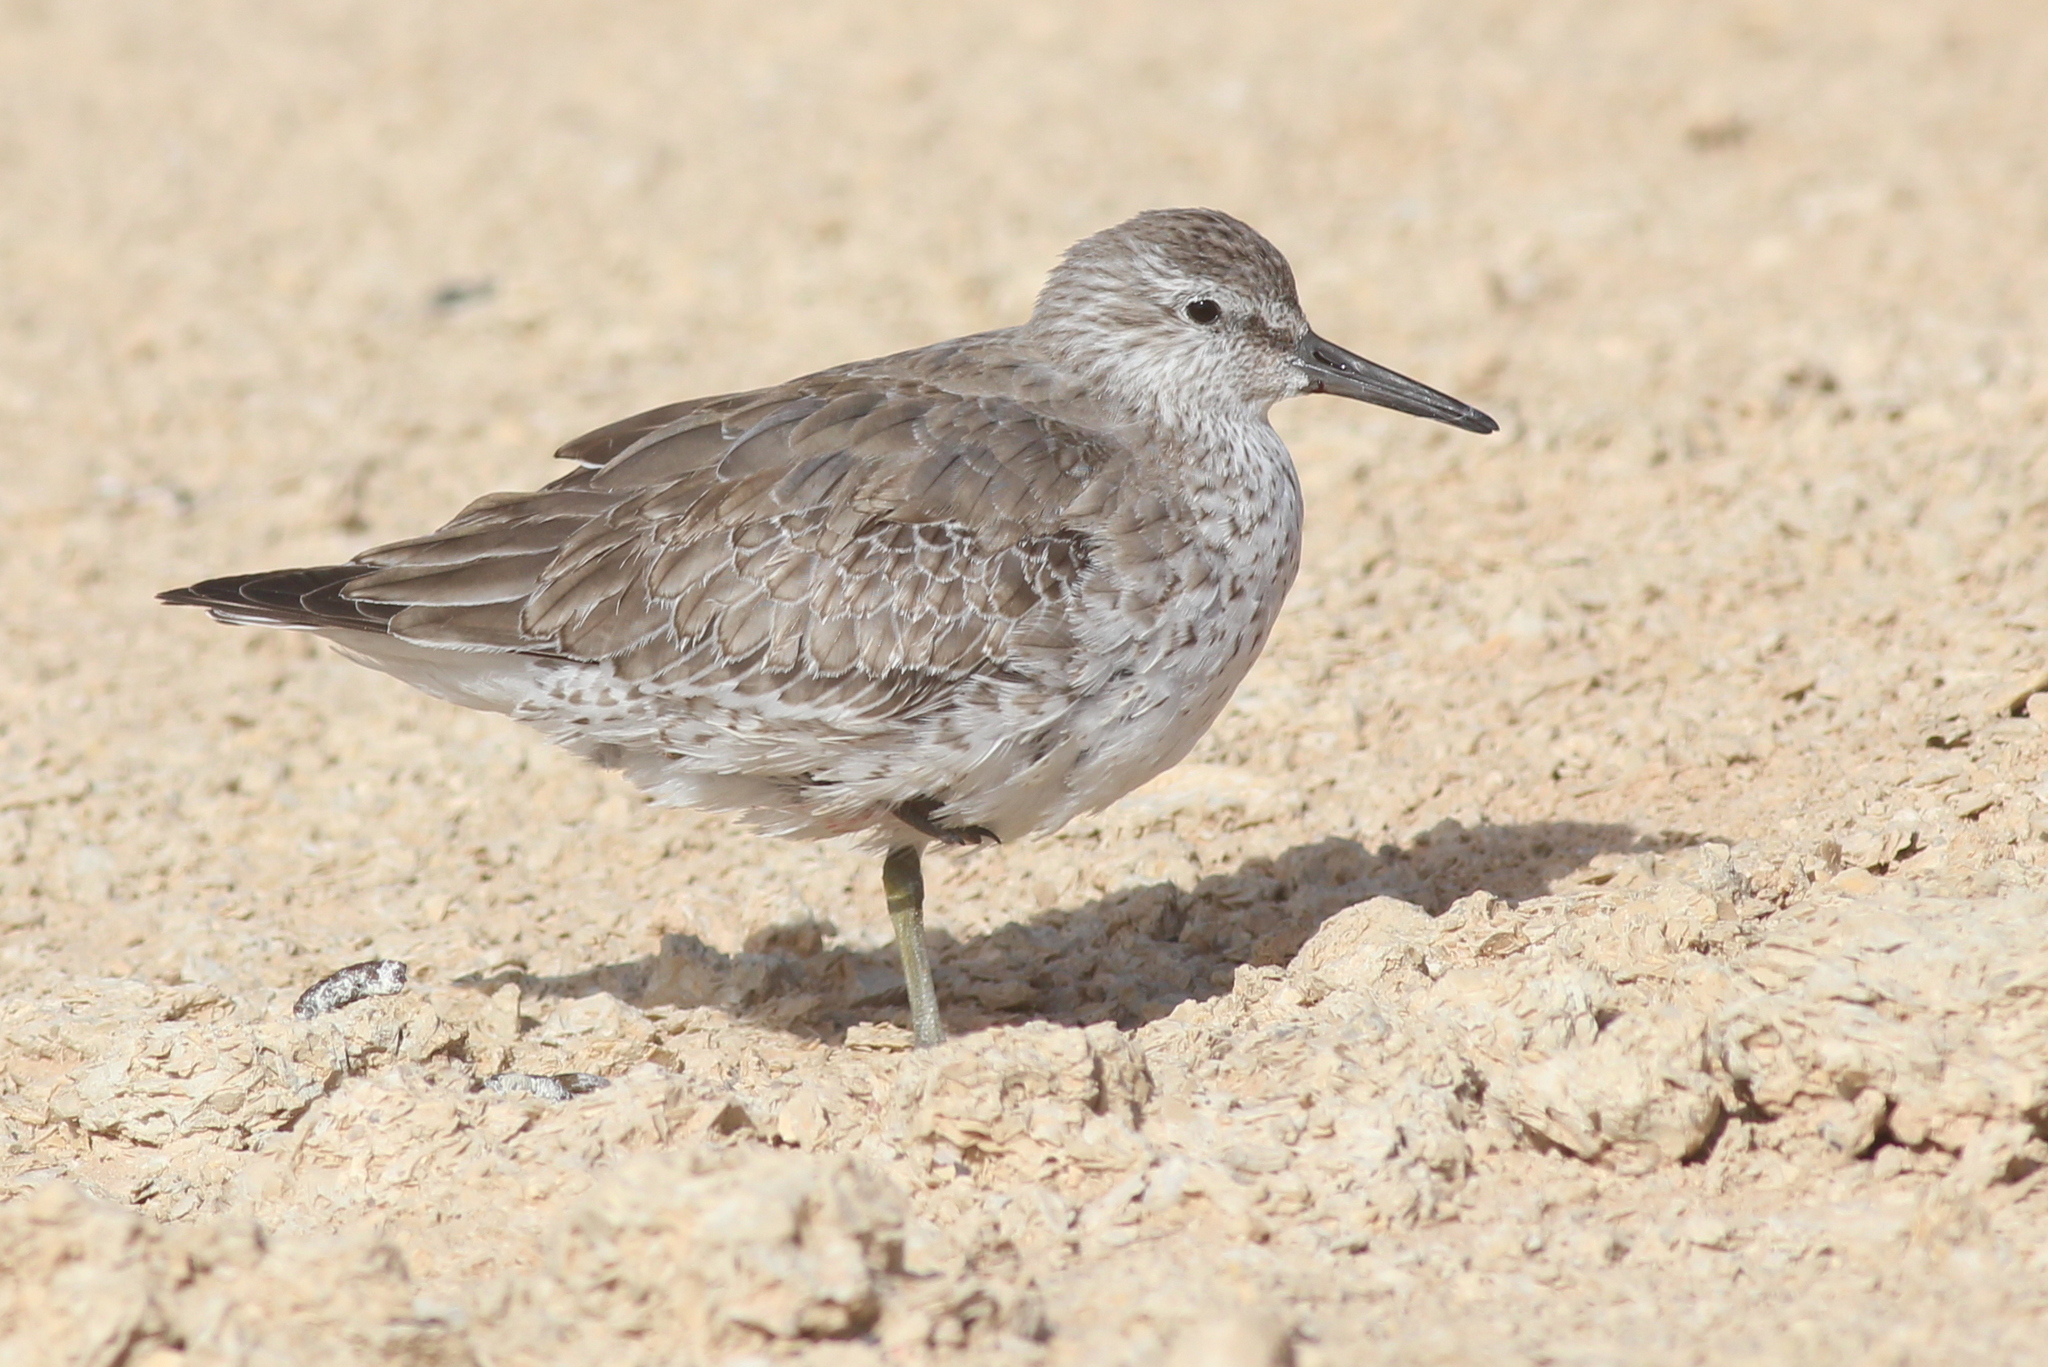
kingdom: Animalia
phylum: Chordata
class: Aves
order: Charadriiformes
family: Scolopacidae
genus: Calidris
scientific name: Calidris canutus
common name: Red knot
